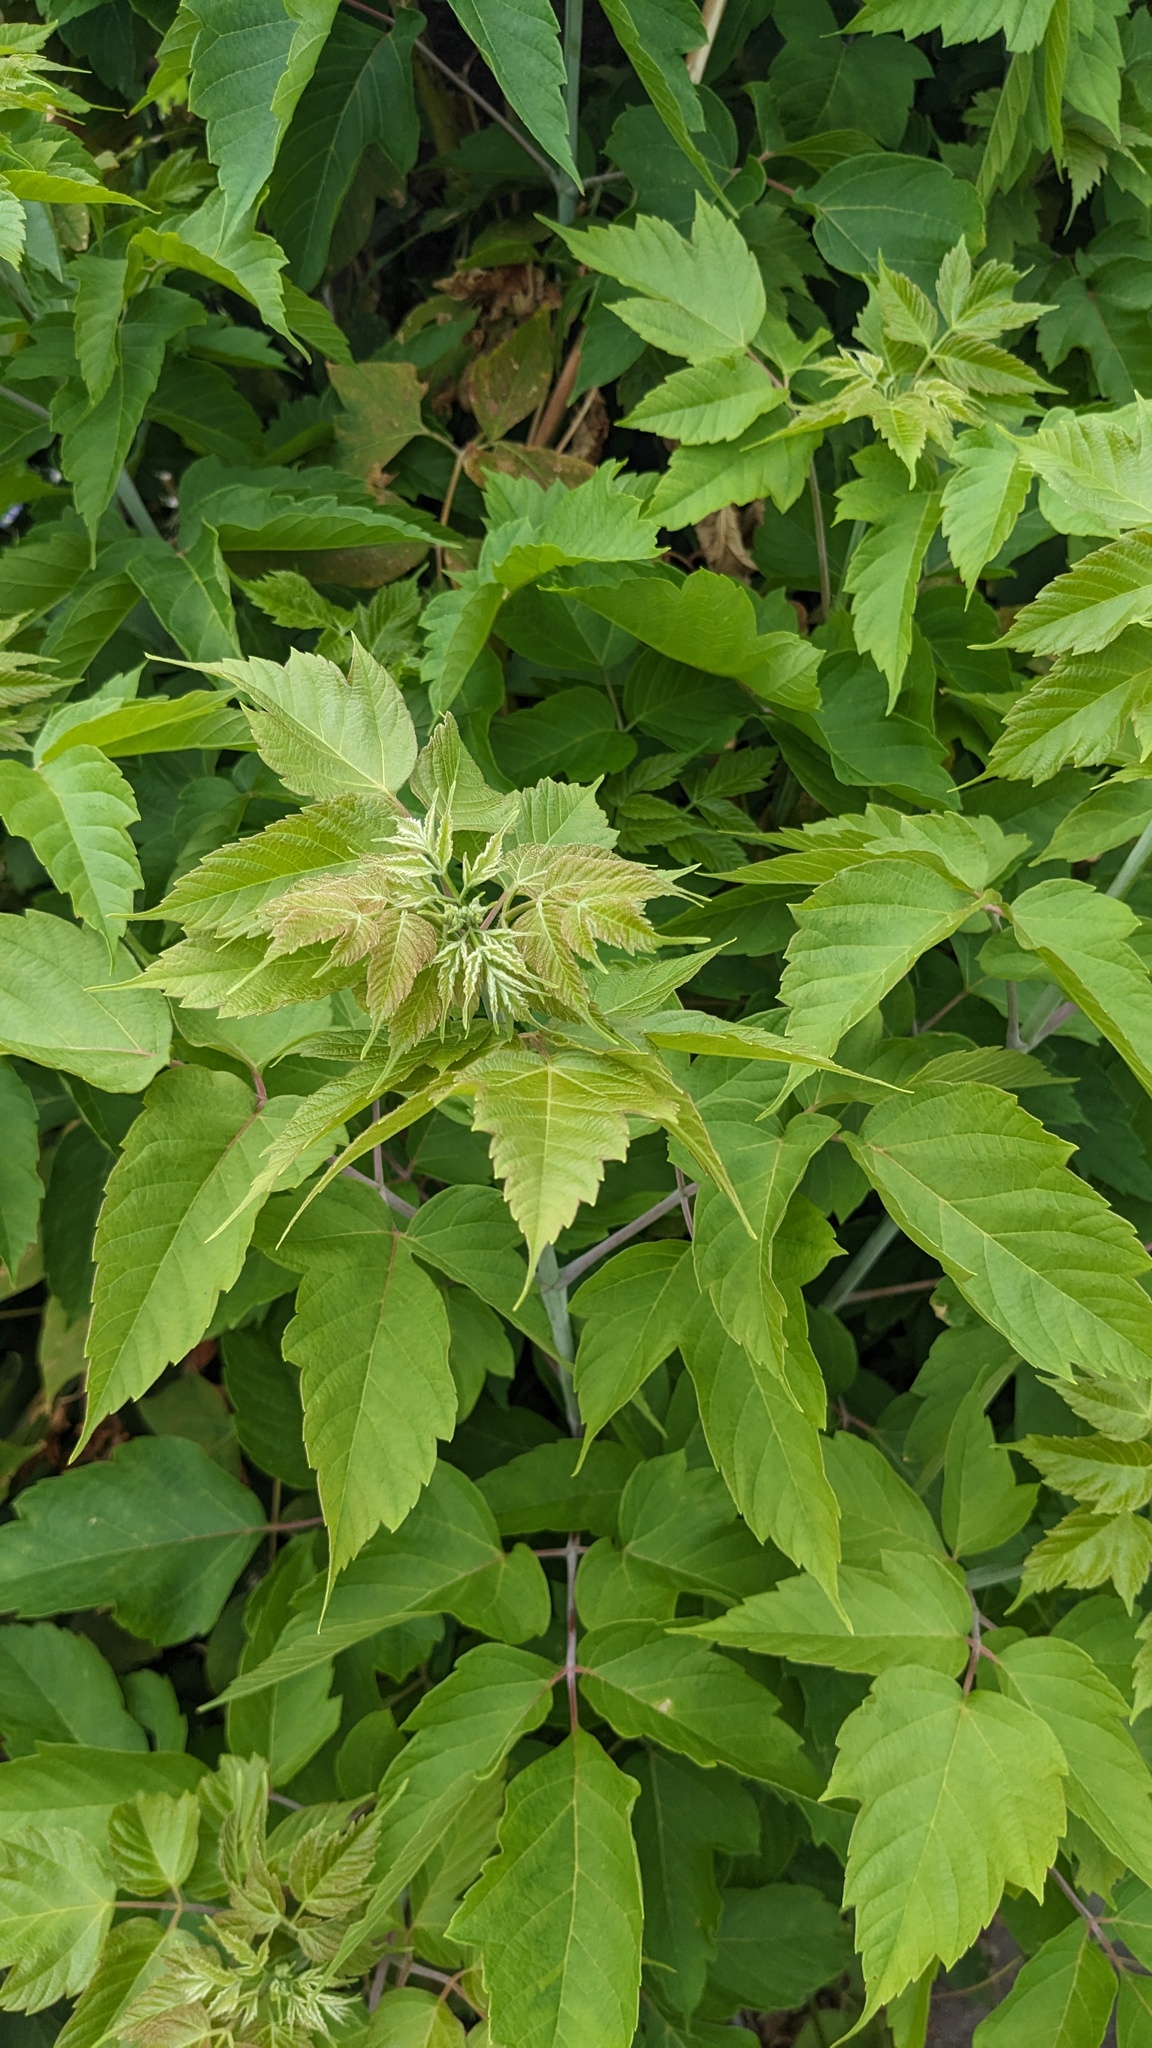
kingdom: Plantae
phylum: Tracheophyta
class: Magnoliopsida
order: Sapindales
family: Sapindaceae
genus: Acer
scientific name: Acer negundo
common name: Ashleaf maple
